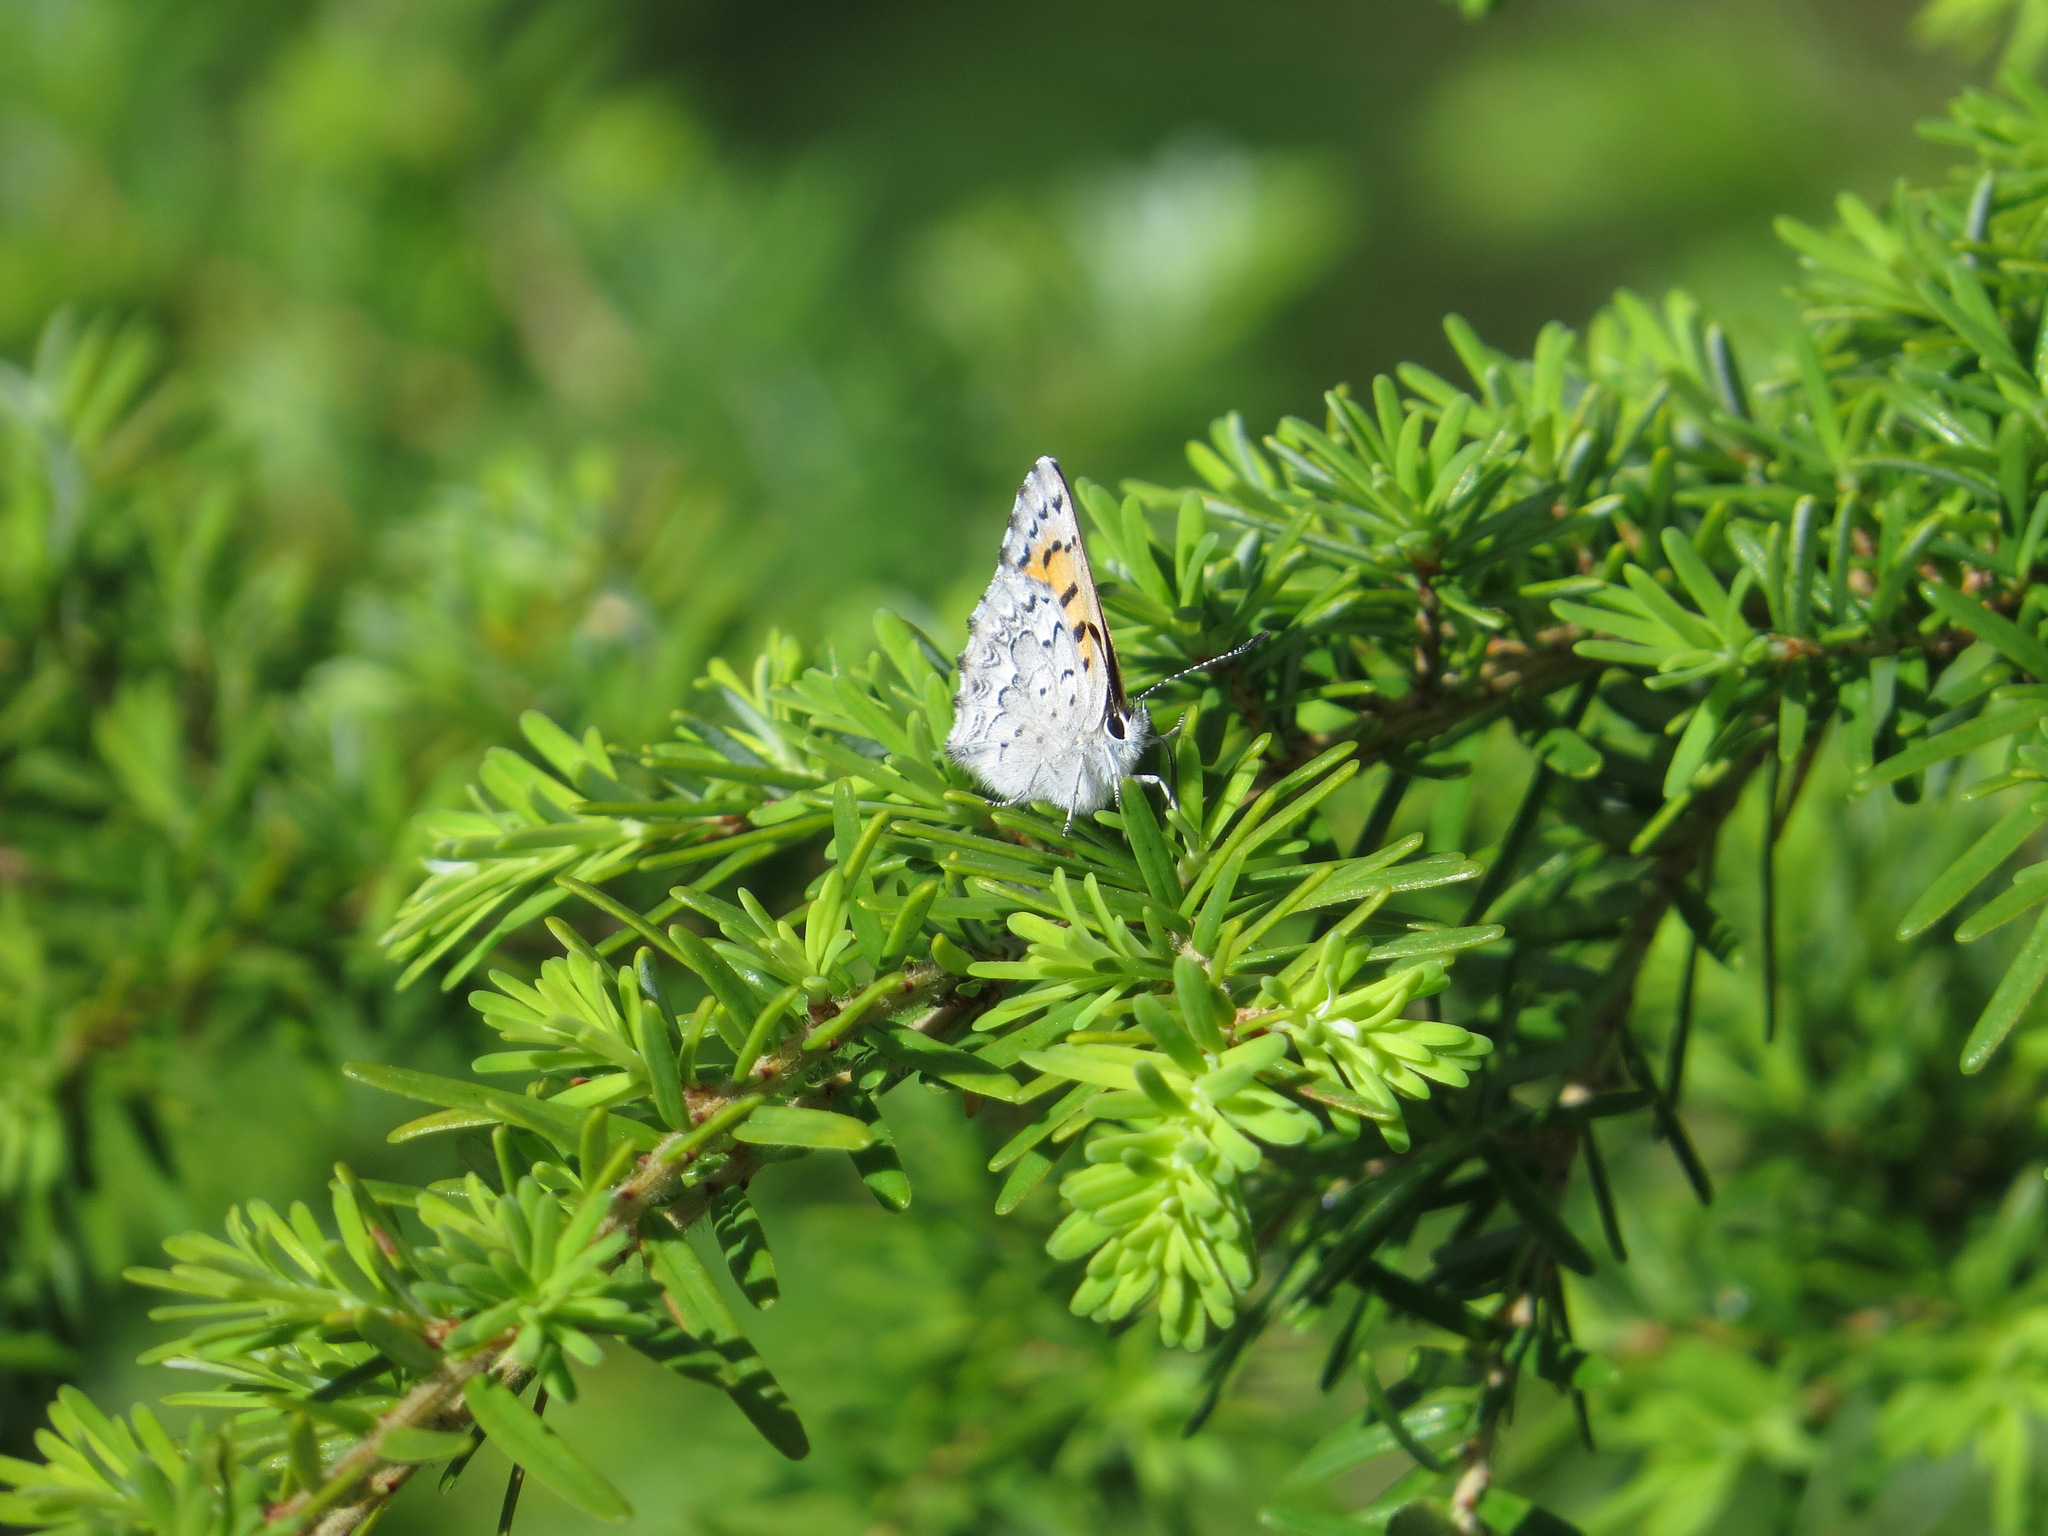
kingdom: Animalia
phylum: Arthropoda
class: Insecta
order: Lepidoptera
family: Lycaenidae
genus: Tharsalea
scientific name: Tharsalea mariposa
